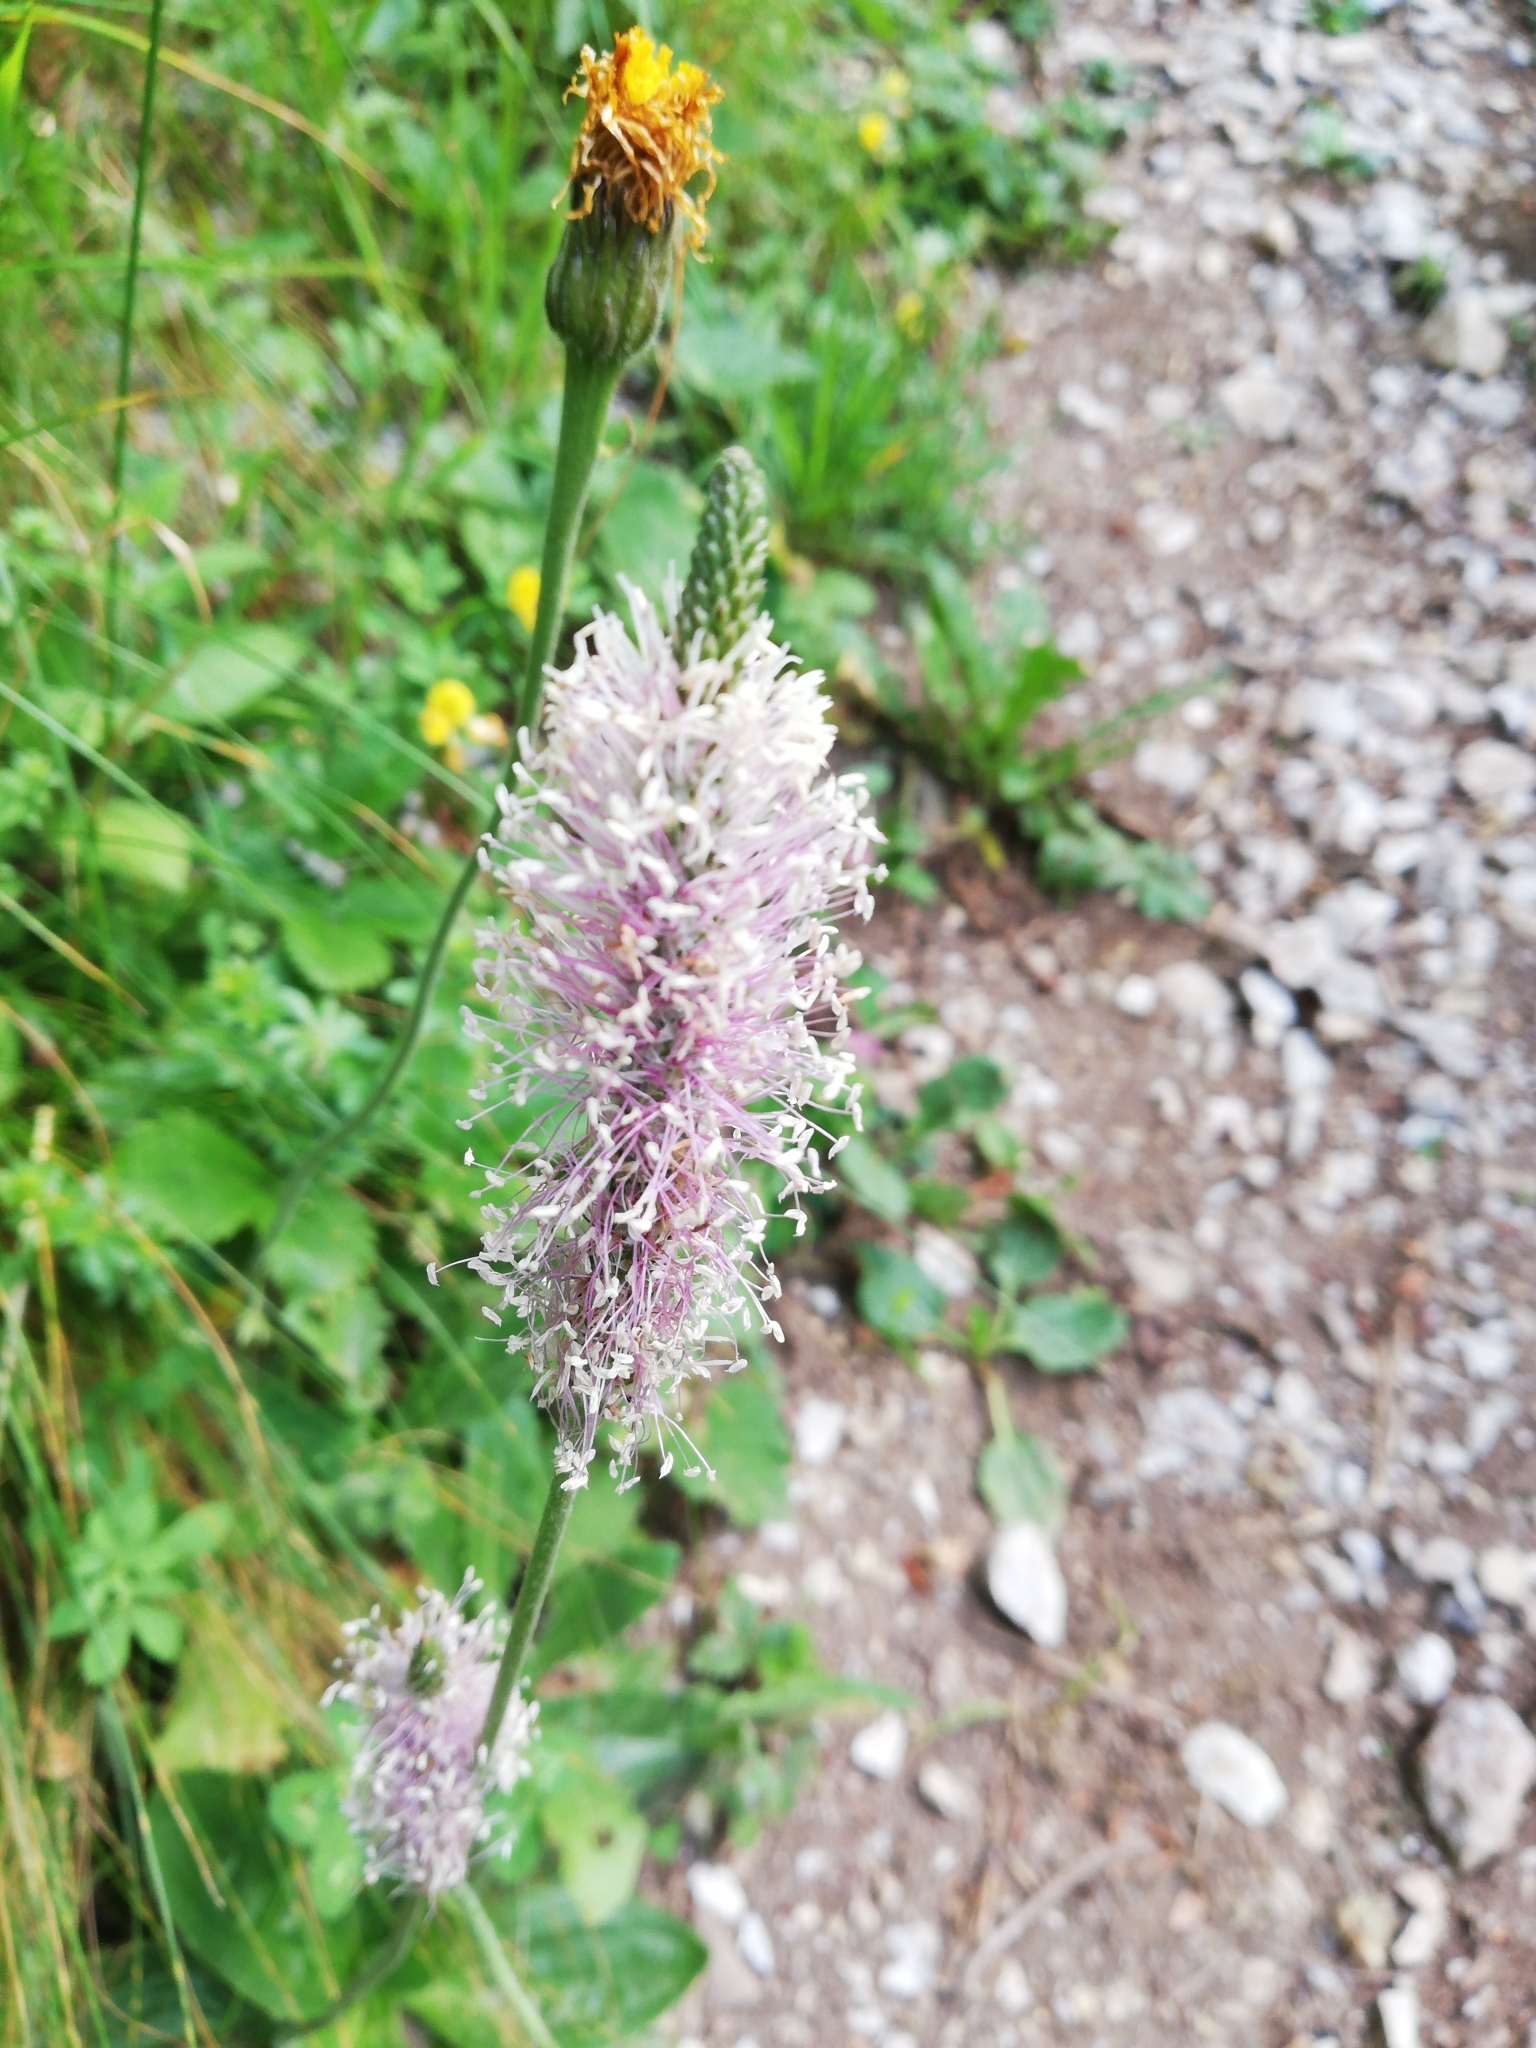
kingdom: Plantae
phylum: Tracheophyta
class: Magnoliopsida
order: Lamiales
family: Plantaginaceae
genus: Plantago
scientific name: Plantago media
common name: Hoary plantain
